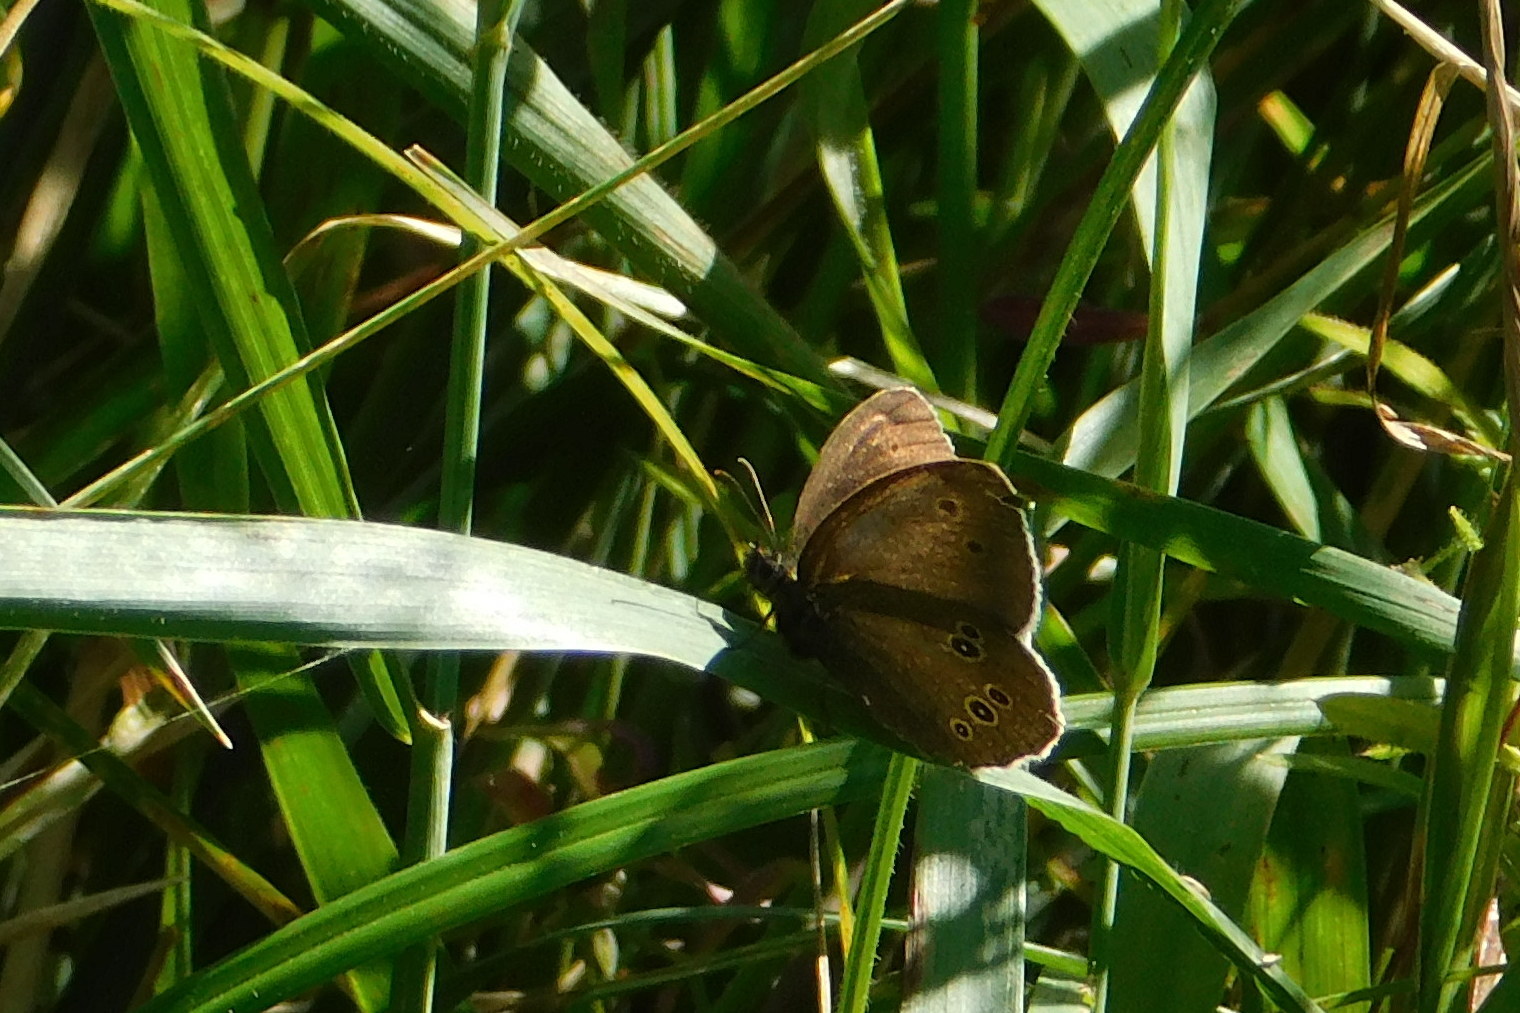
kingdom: Animalia
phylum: Arthropoda
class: Insecta
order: Lepidoptera
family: Nymphalidae
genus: Aphantopus
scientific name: Aphantopus hyperantus
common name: Ringlet
